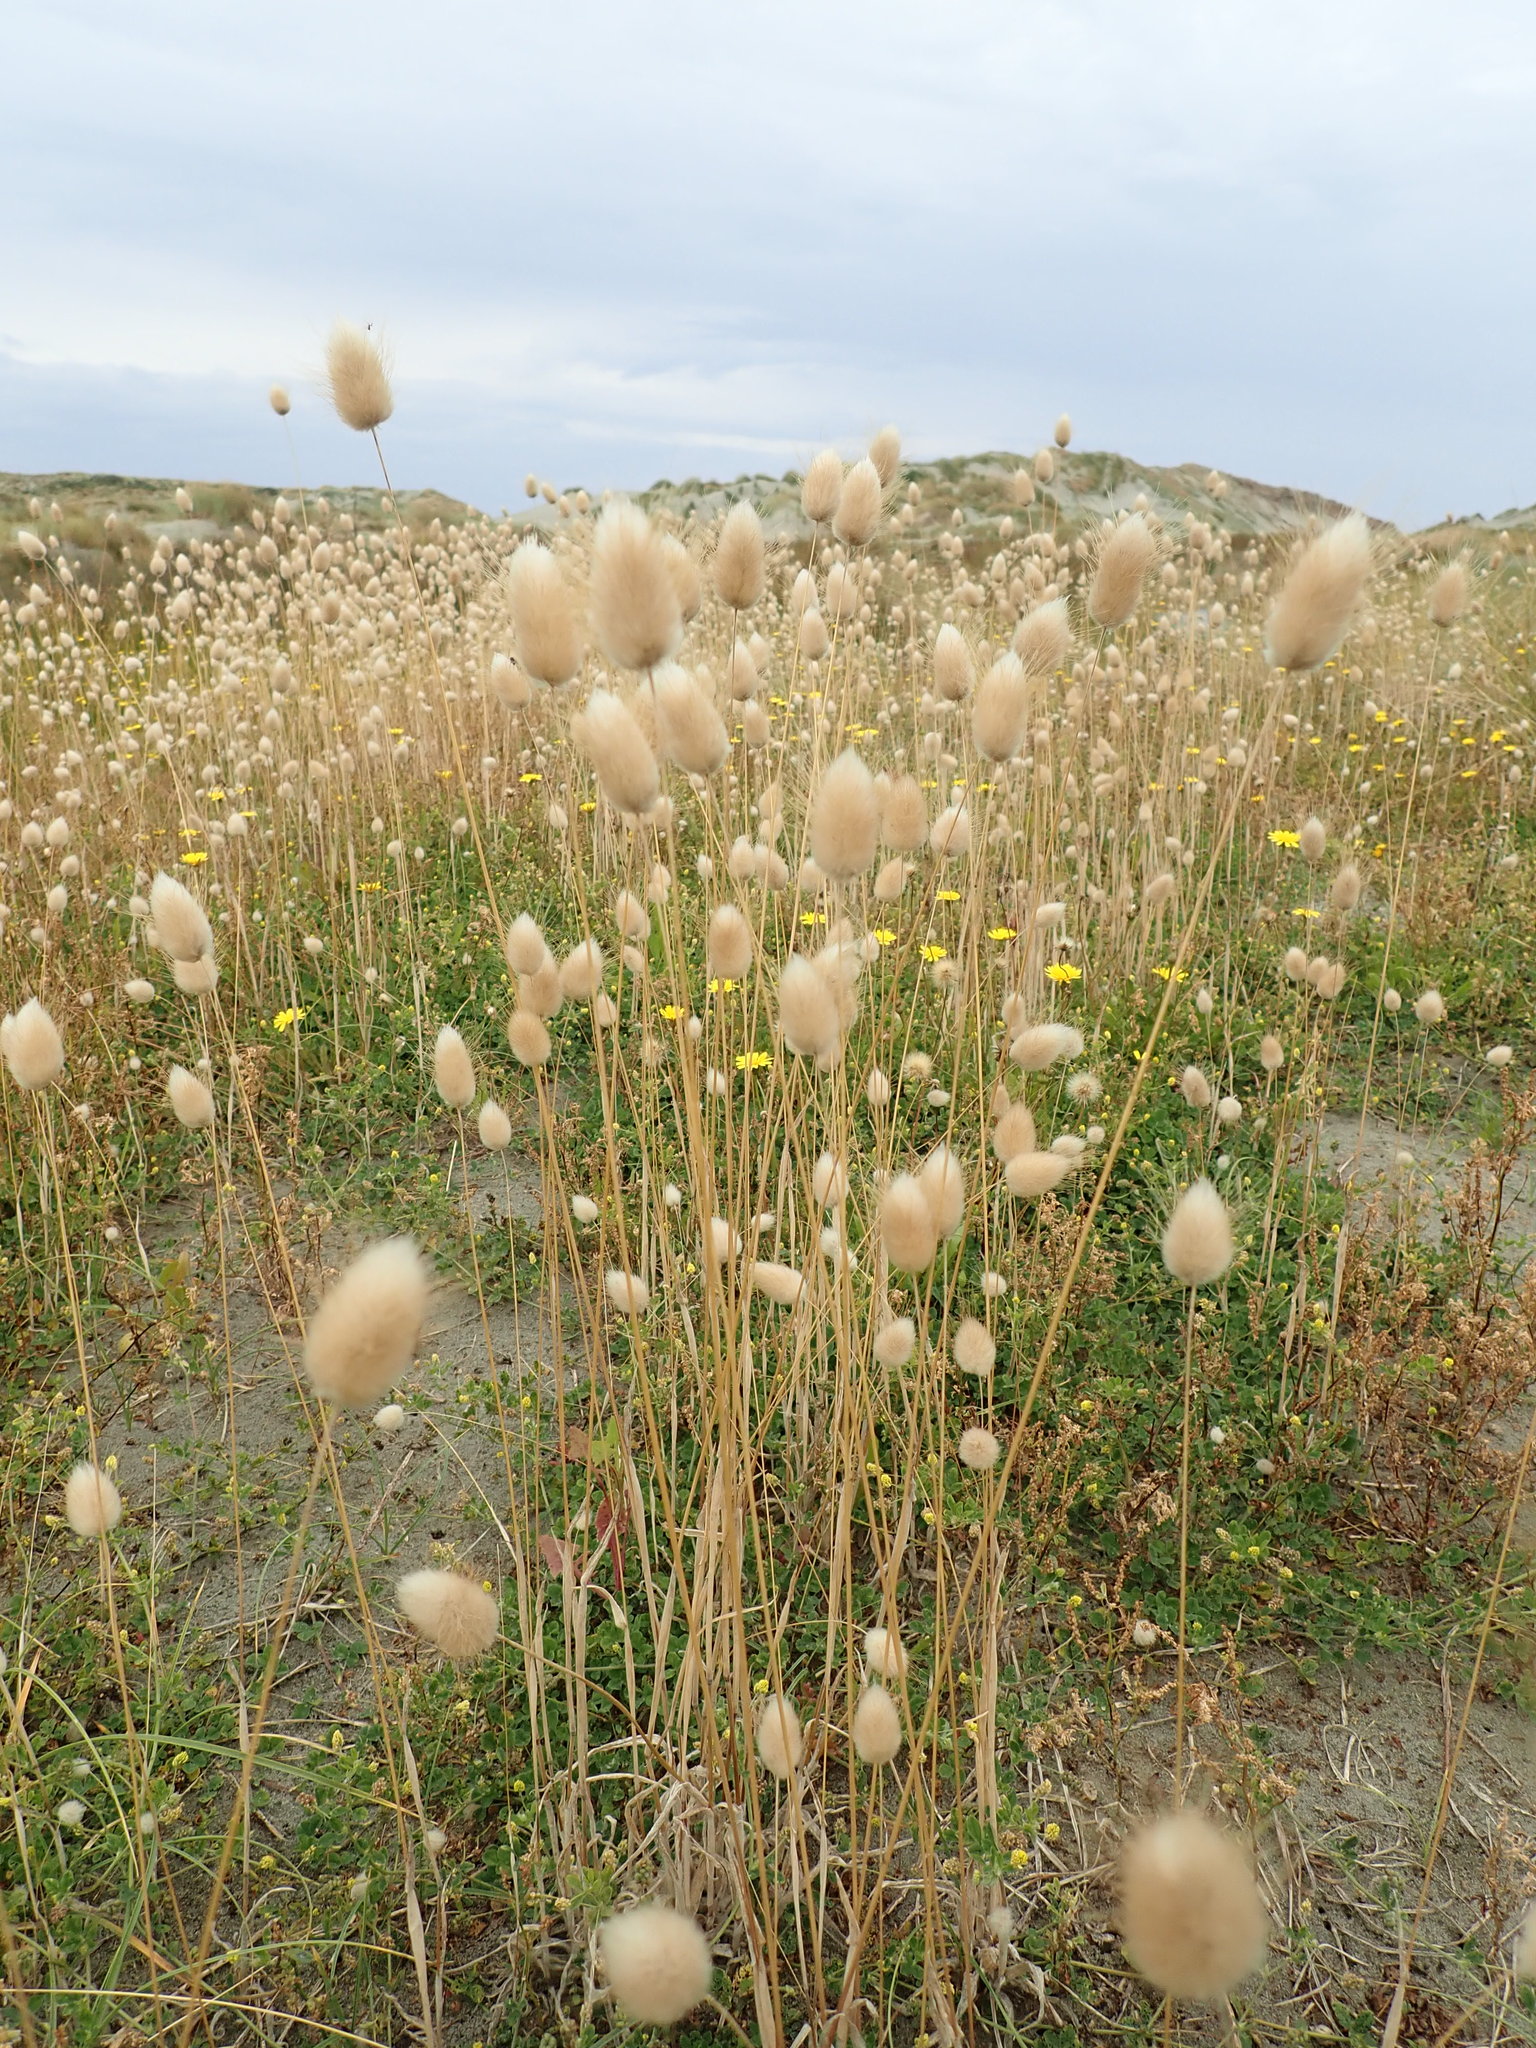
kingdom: Plantae
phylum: Tracheophyta
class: Liliopsida
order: Poales
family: Poaceae
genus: Lagurus
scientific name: Lagurus ovatus
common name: Hare's-tail
